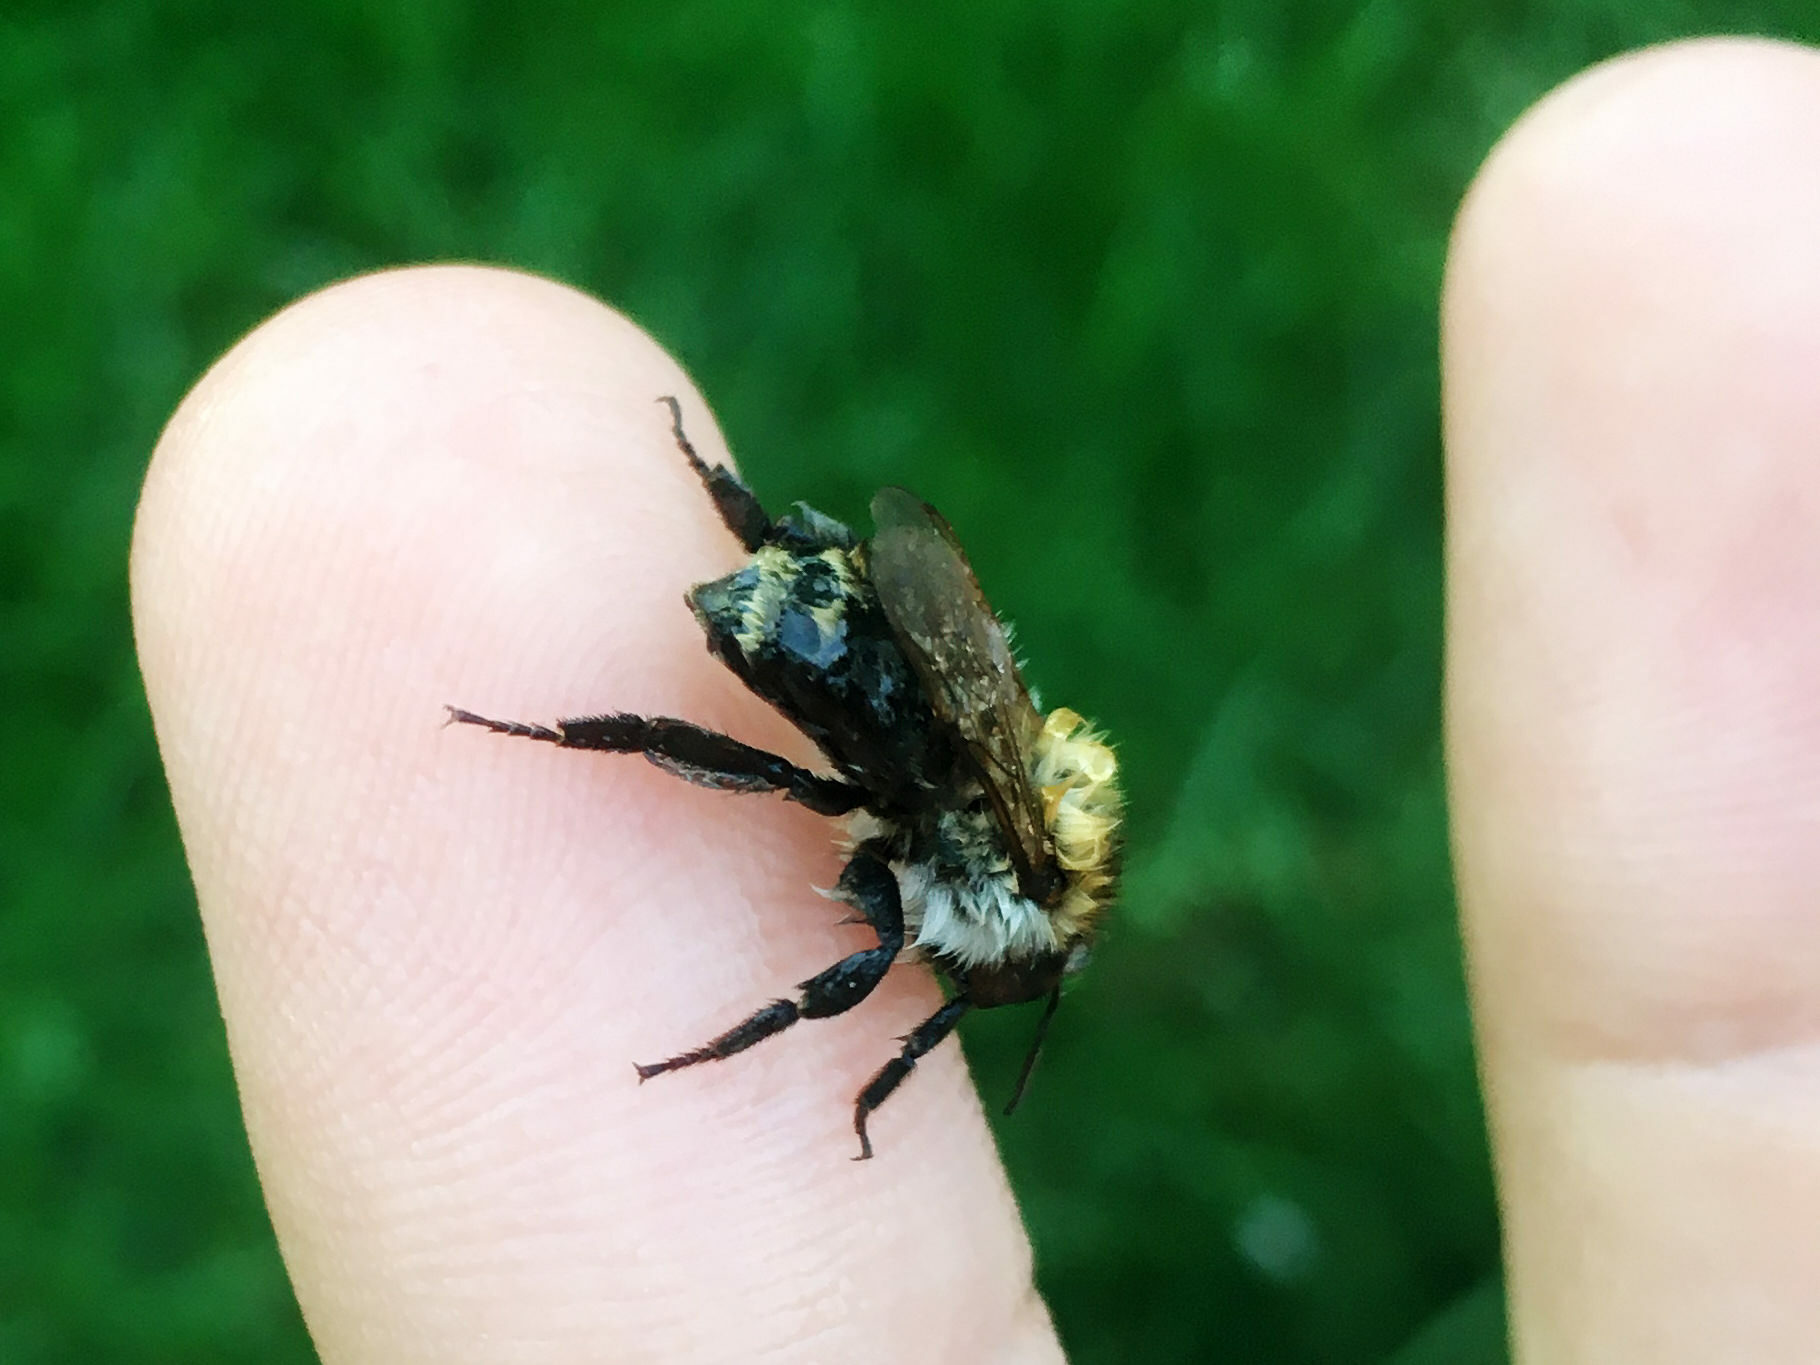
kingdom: Animalia
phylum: Arthropoda
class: Insecta
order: Hymenoptera
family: Apidae
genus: Bombus
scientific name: Bombus pascuorum
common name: Common carder bee
